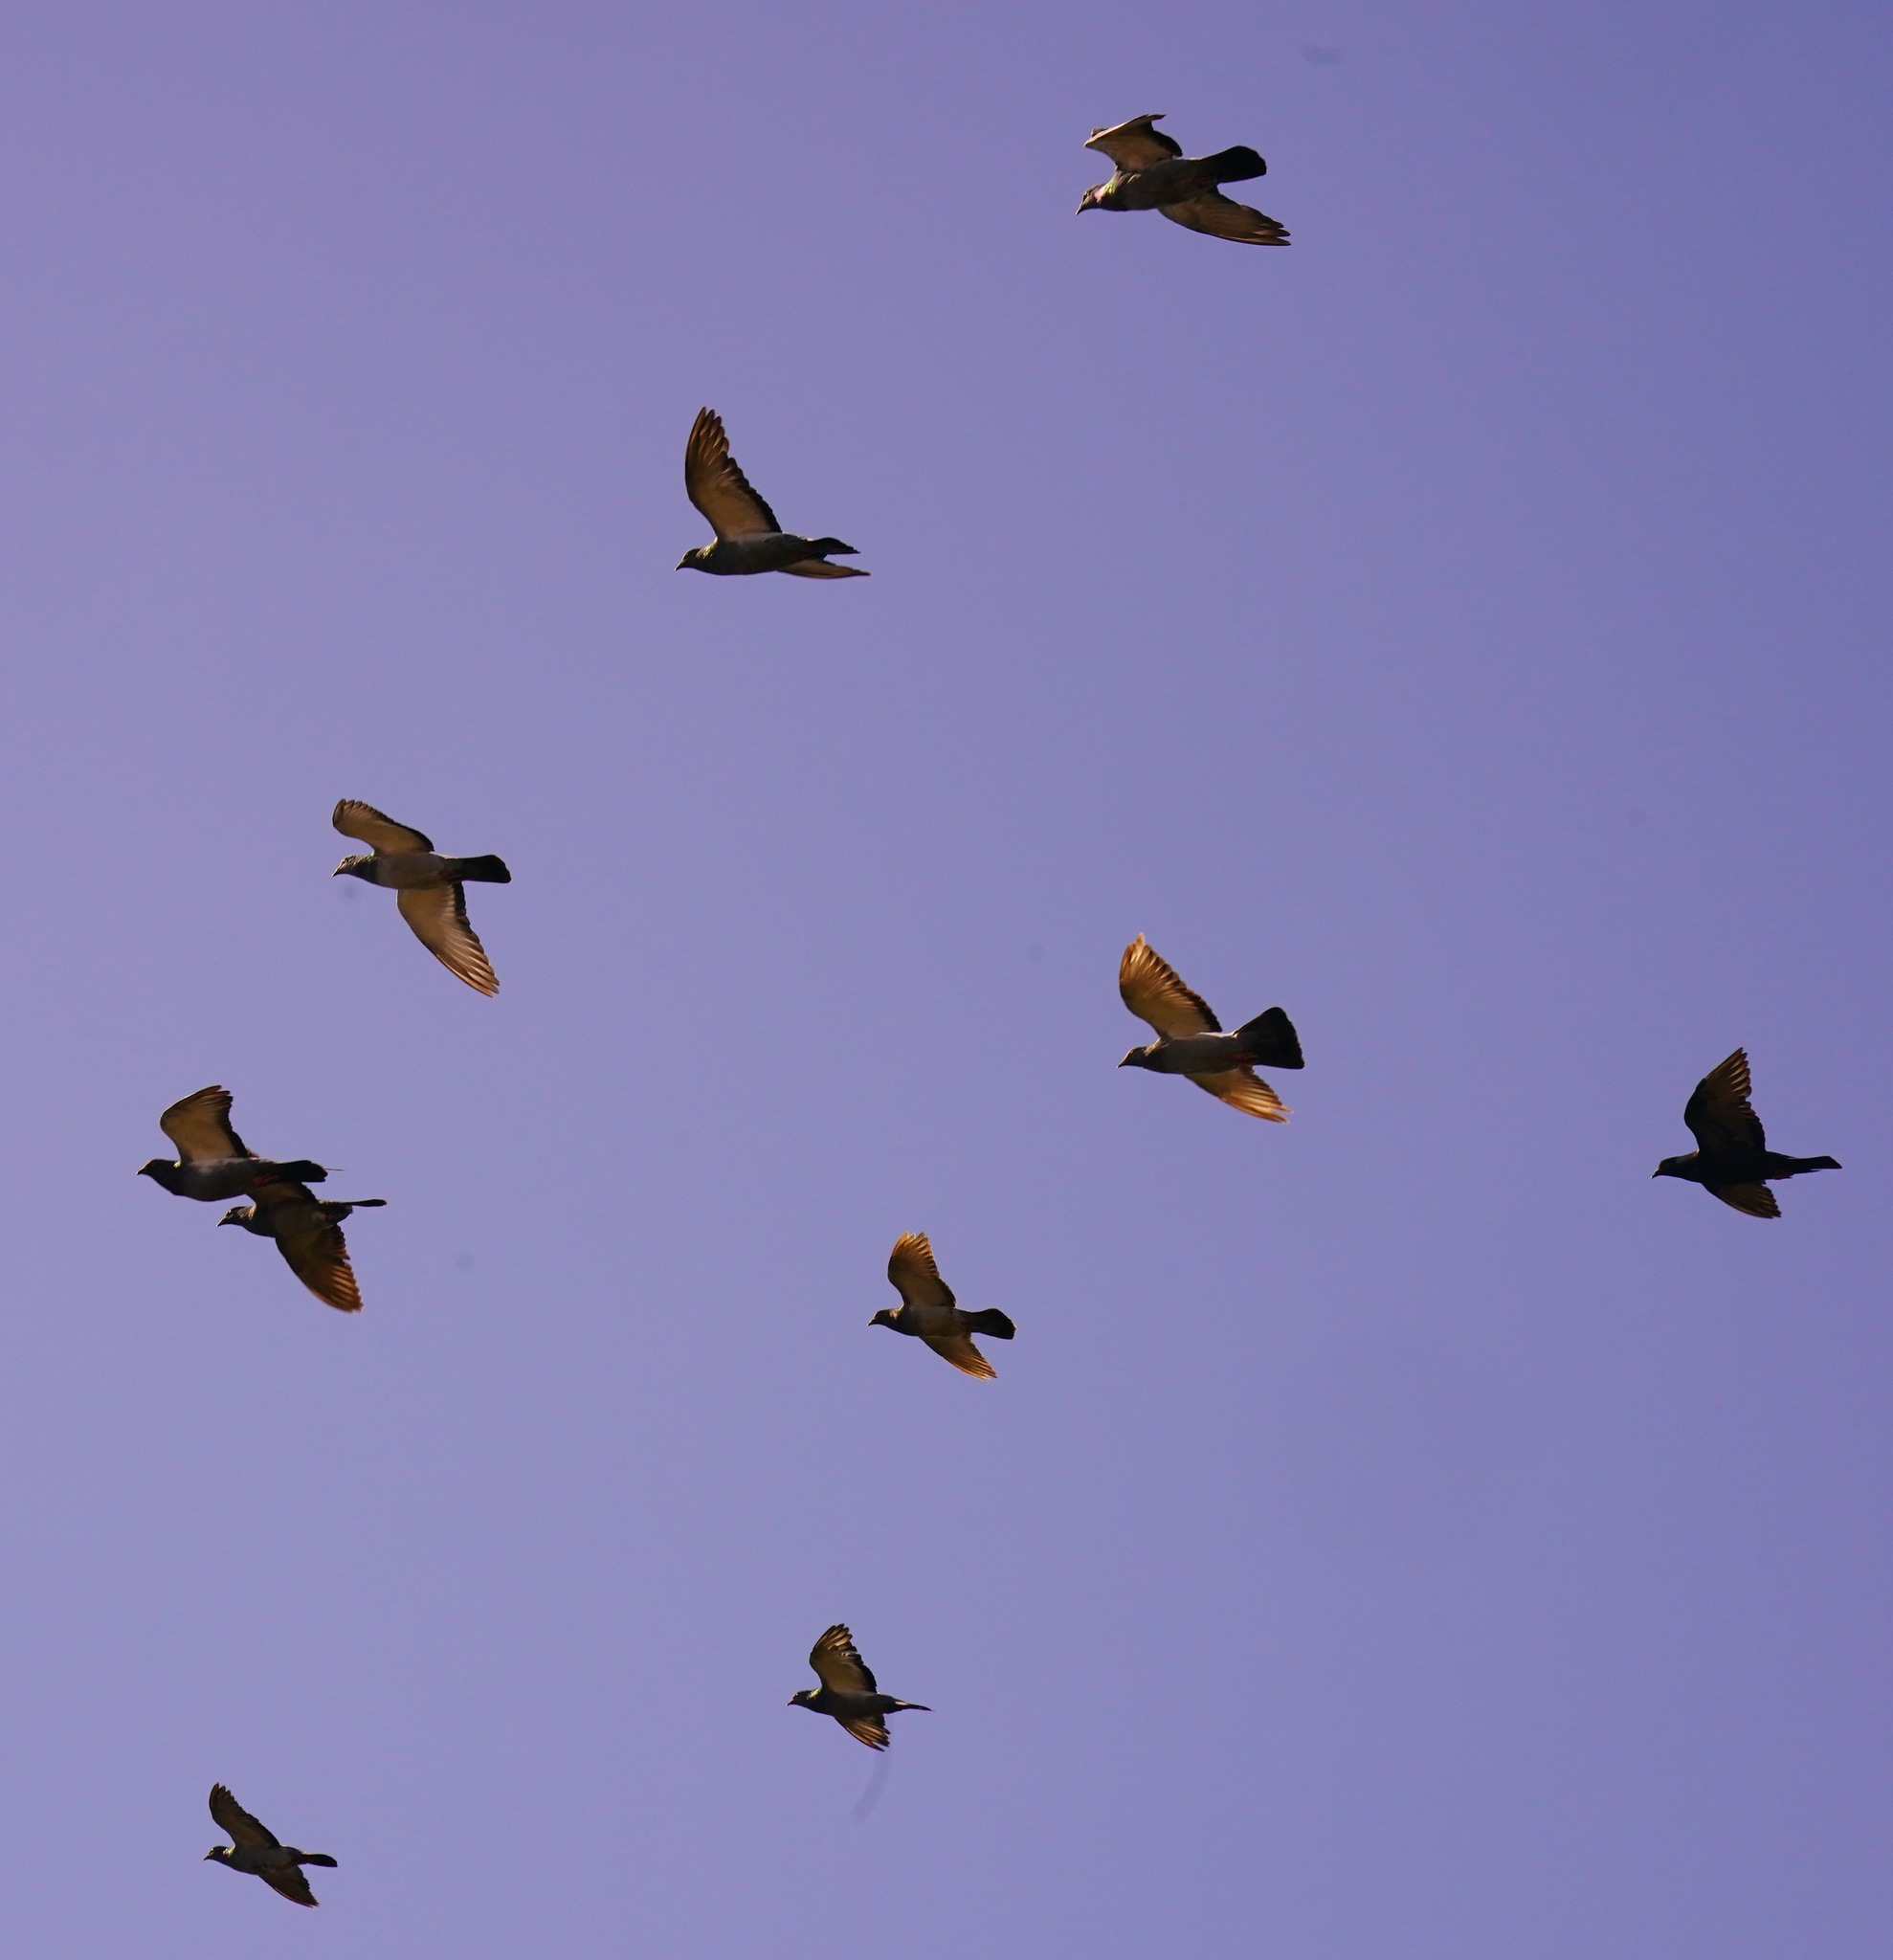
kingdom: Animalia
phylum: Chordata
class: Aves
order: Columbiformes
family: Columbidae
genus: Columba
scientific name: Columba livia
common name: Rock pigeon
